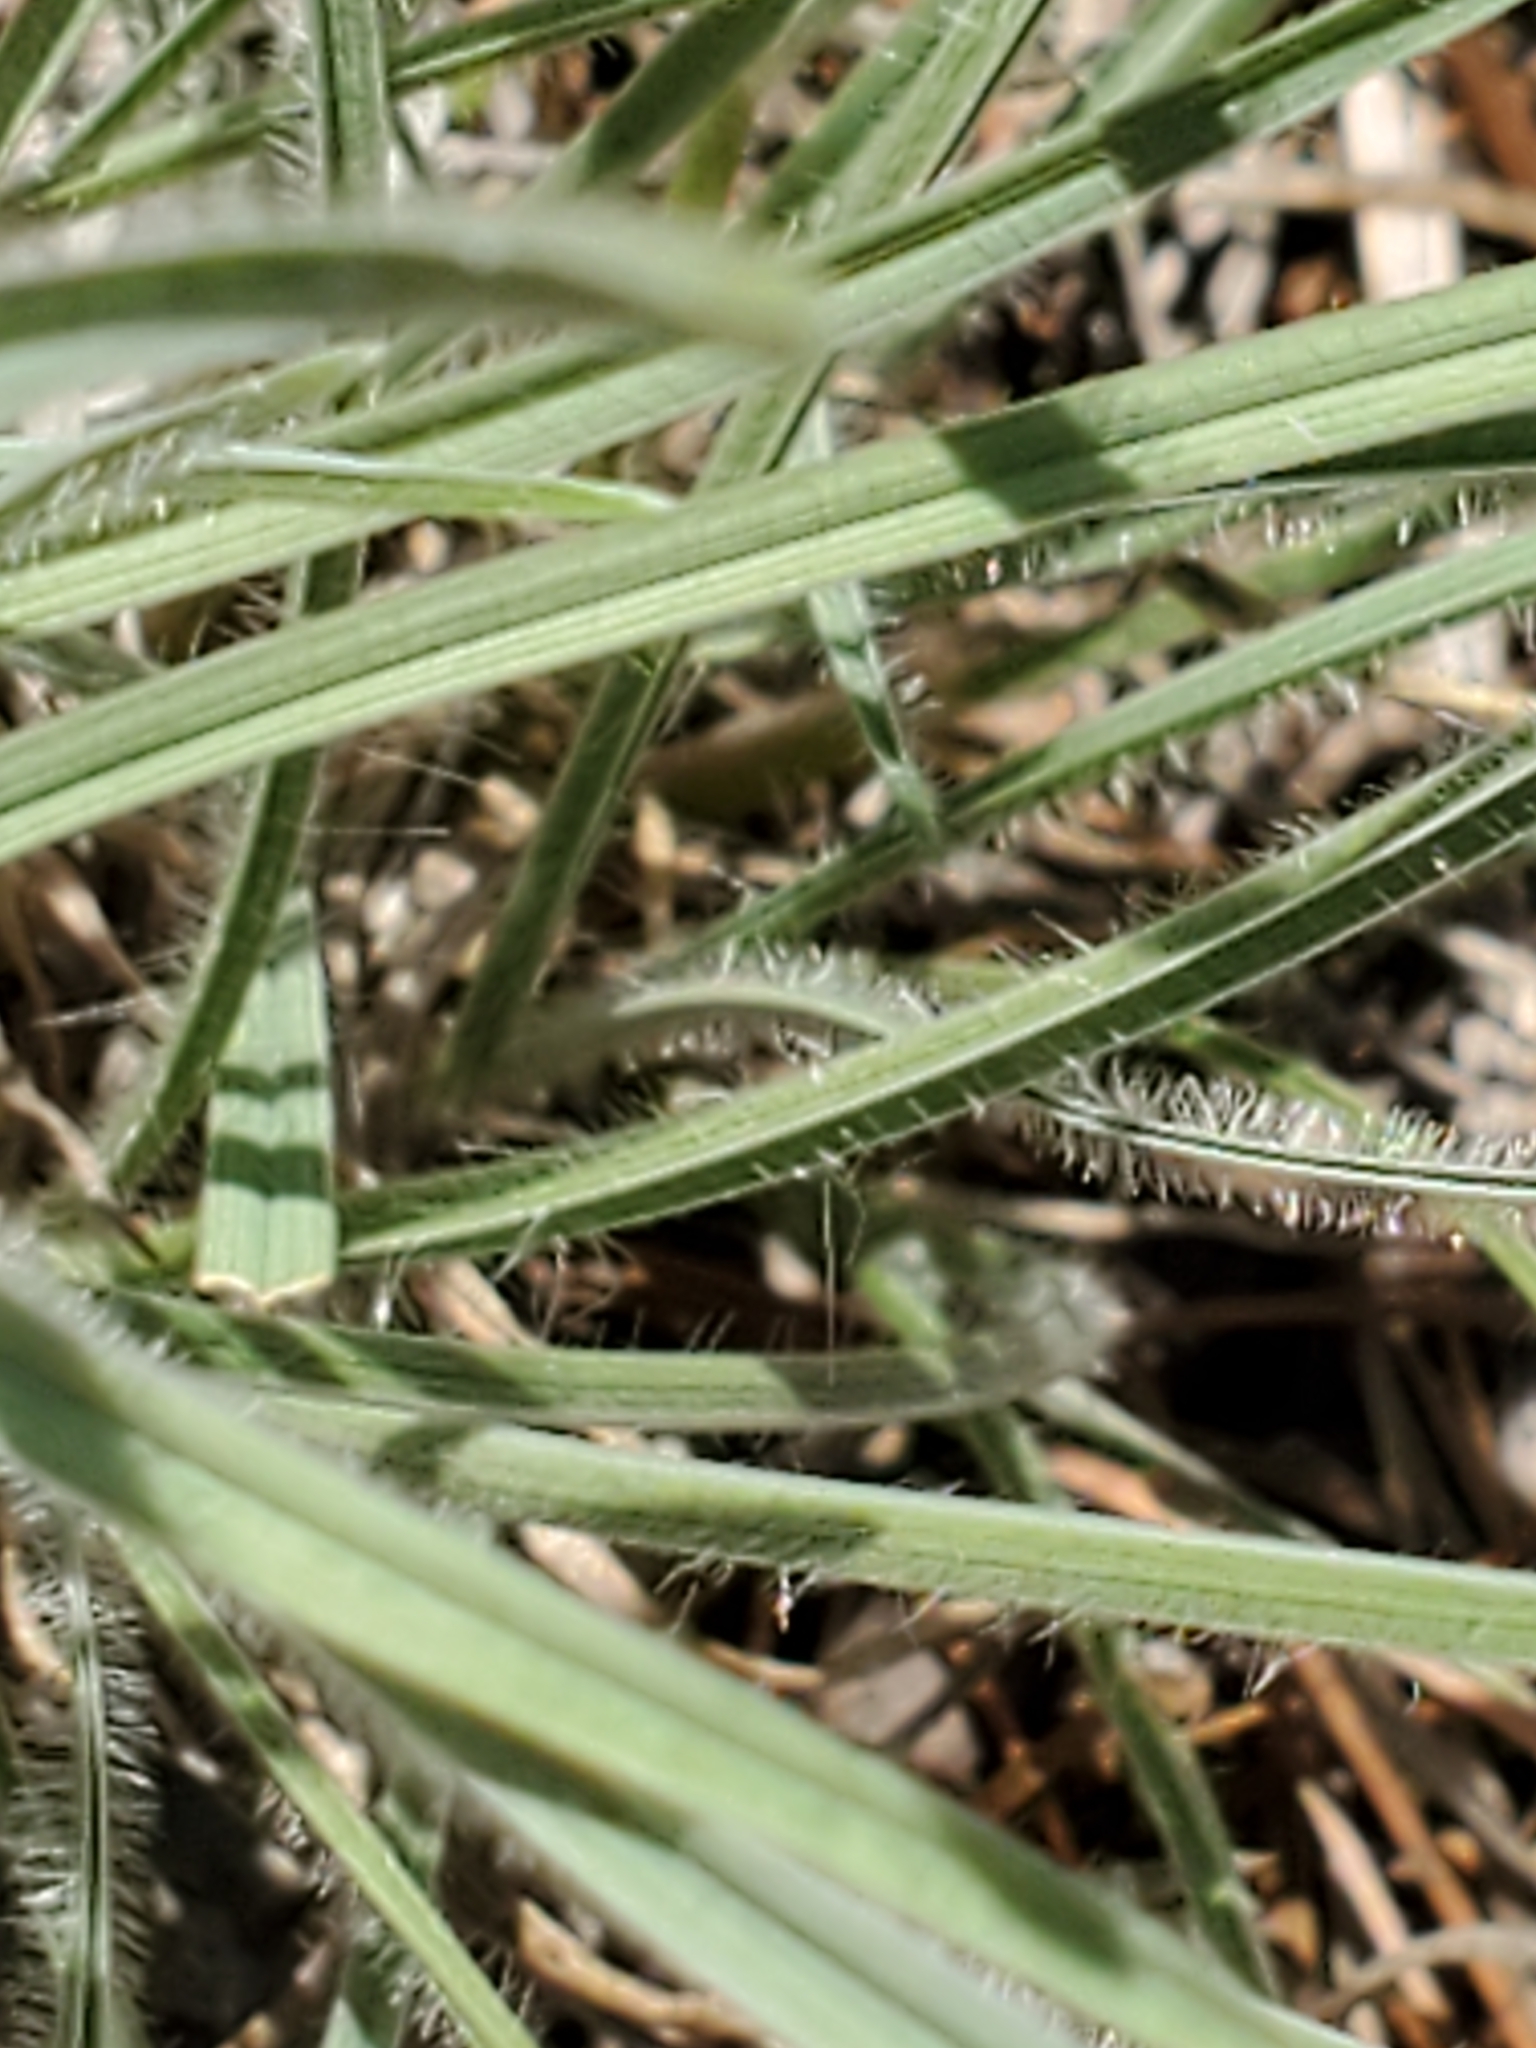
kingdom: Plantae
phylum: Tracheophyta
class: Liliopsida
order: Poales
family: Poaceae
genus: Erioneuron
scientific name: Erioneuron pilosum
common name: Hairy woolly grass
